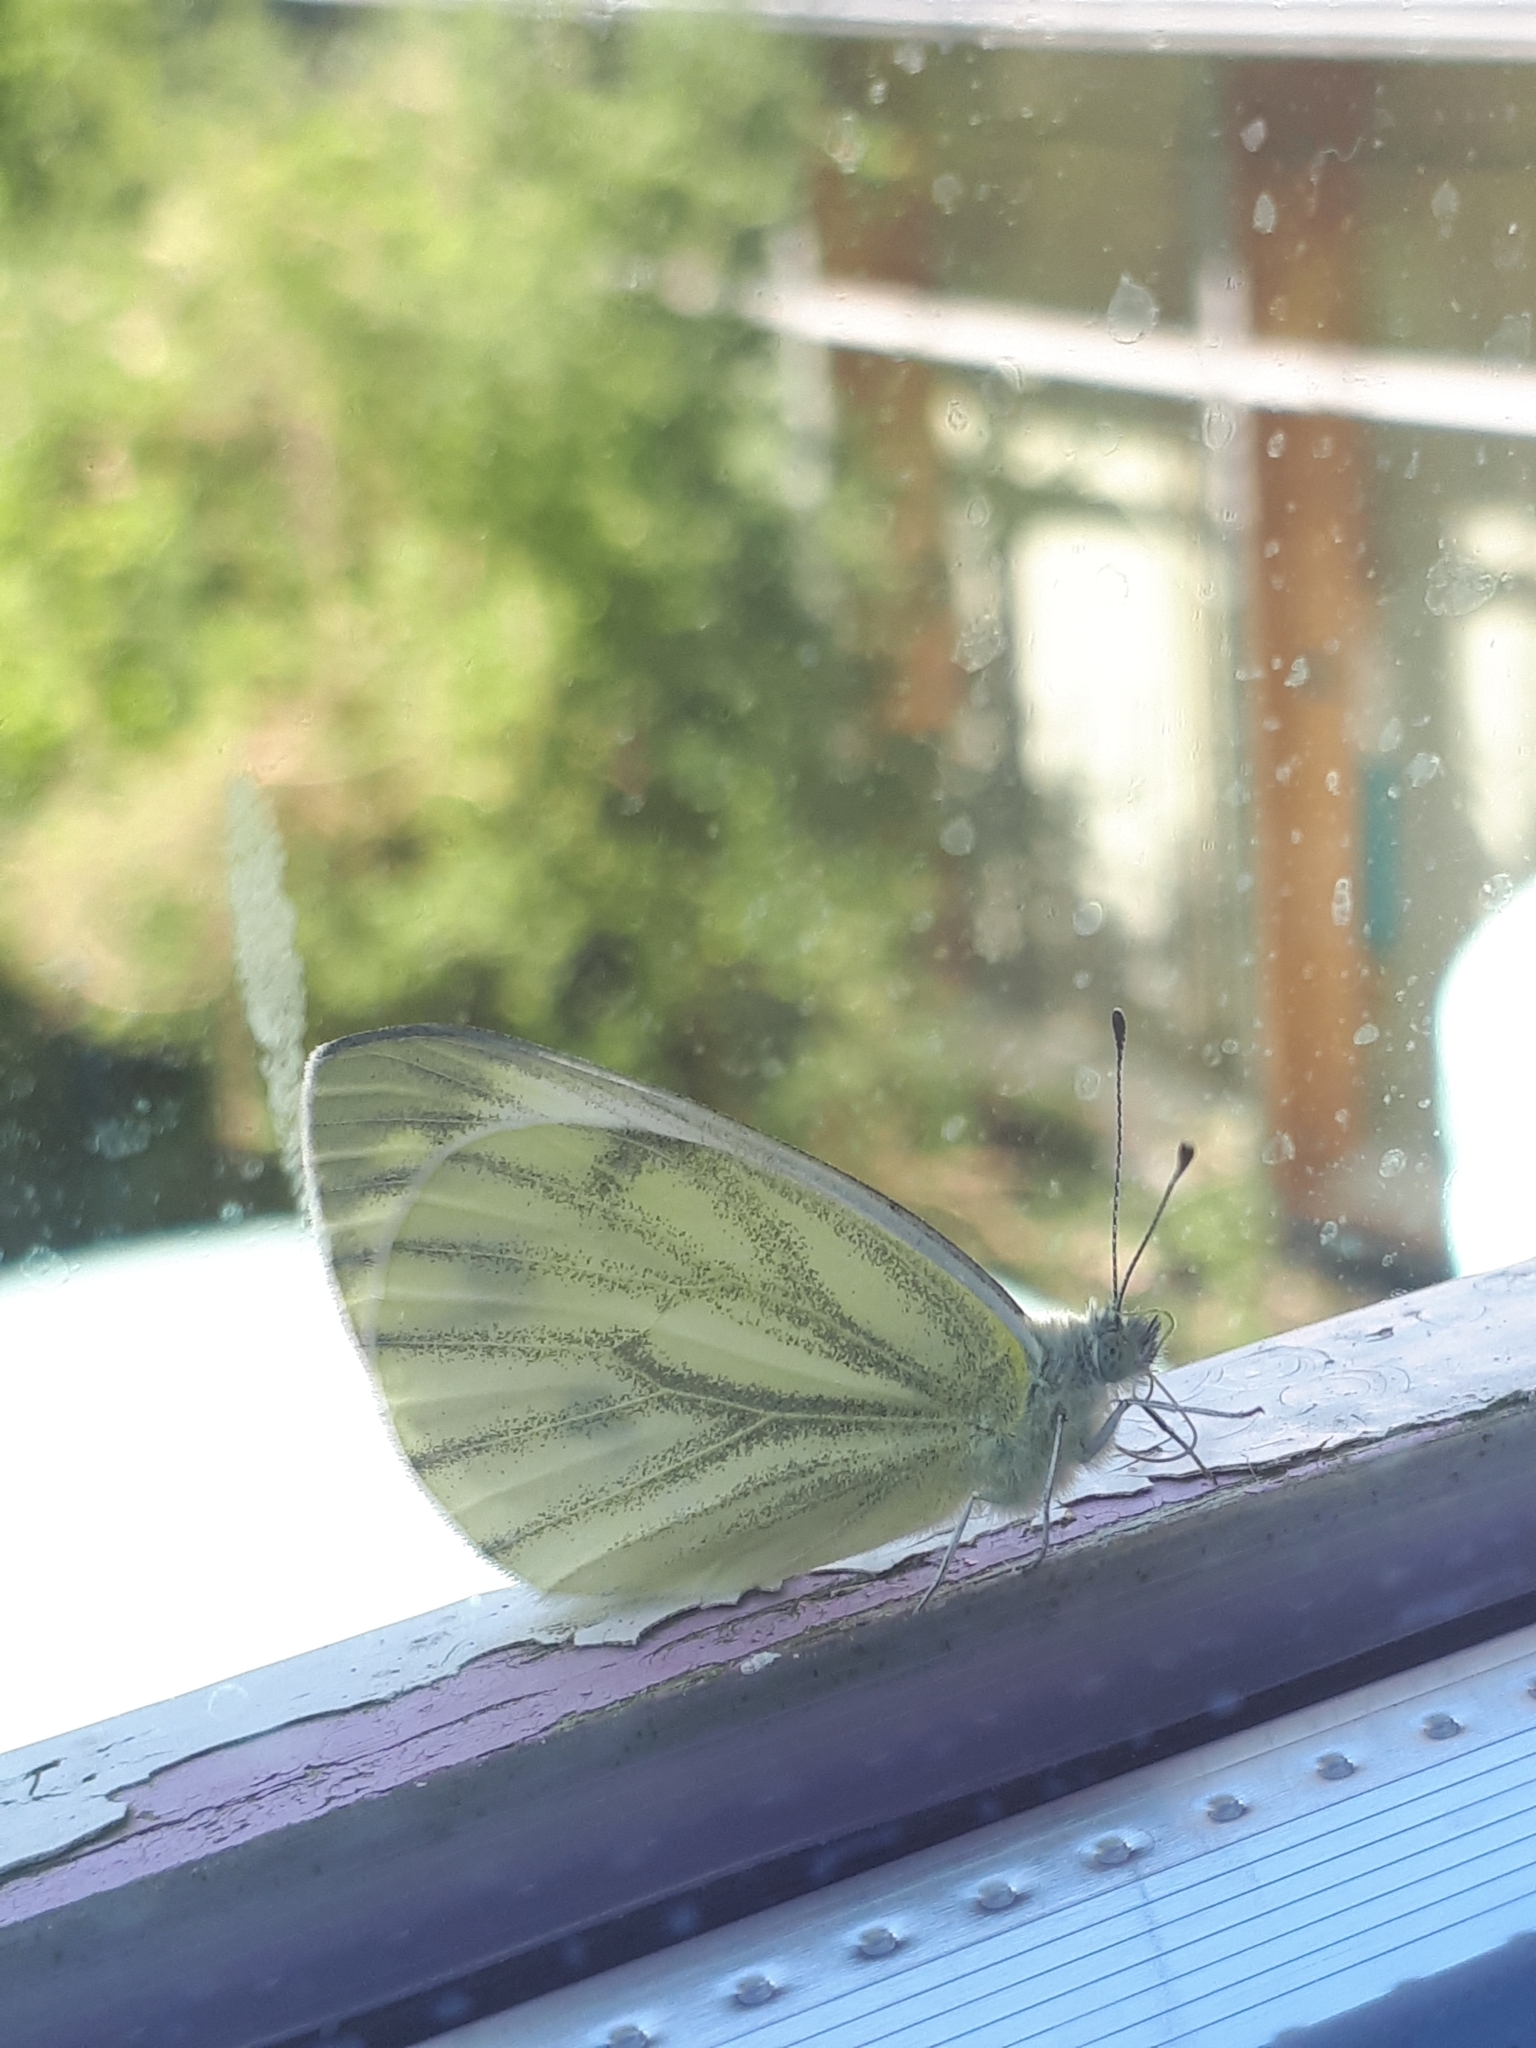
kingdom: Animalia
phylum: Arthropoda
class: Insecta
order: Lepidoptera
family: Pieridae
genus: Pieris
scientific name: Pieris napi
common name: Green-veined white
